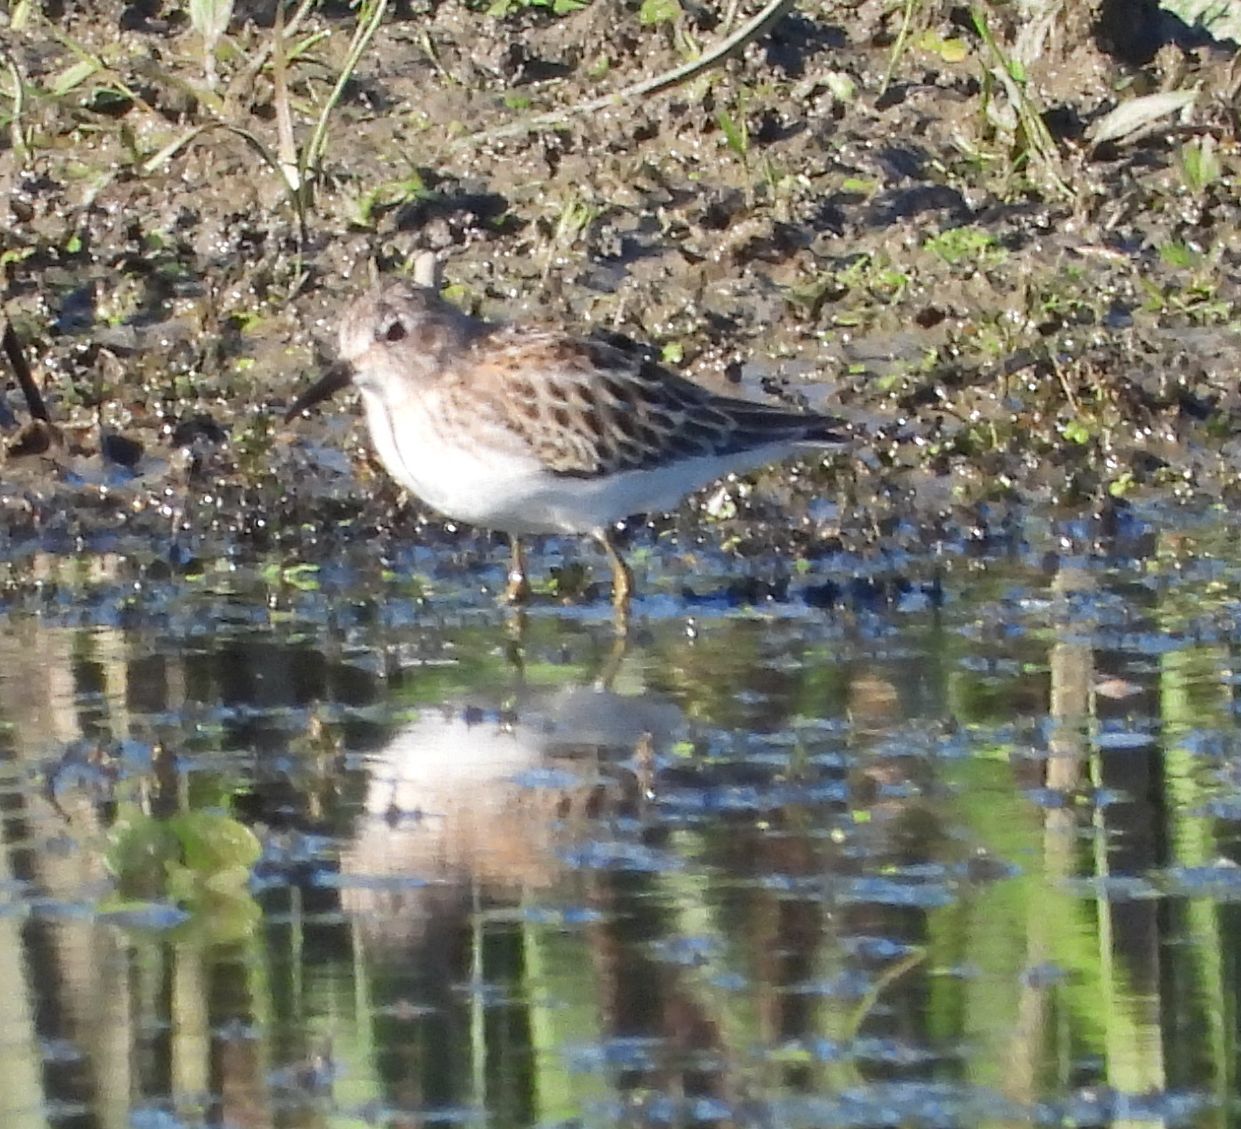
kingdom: Animalia
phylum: Chordata
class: Aves
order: Charadriiformes
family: Scolopacidae
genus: Calidris
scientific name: Calidris minutilla
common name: Least sandpiper
